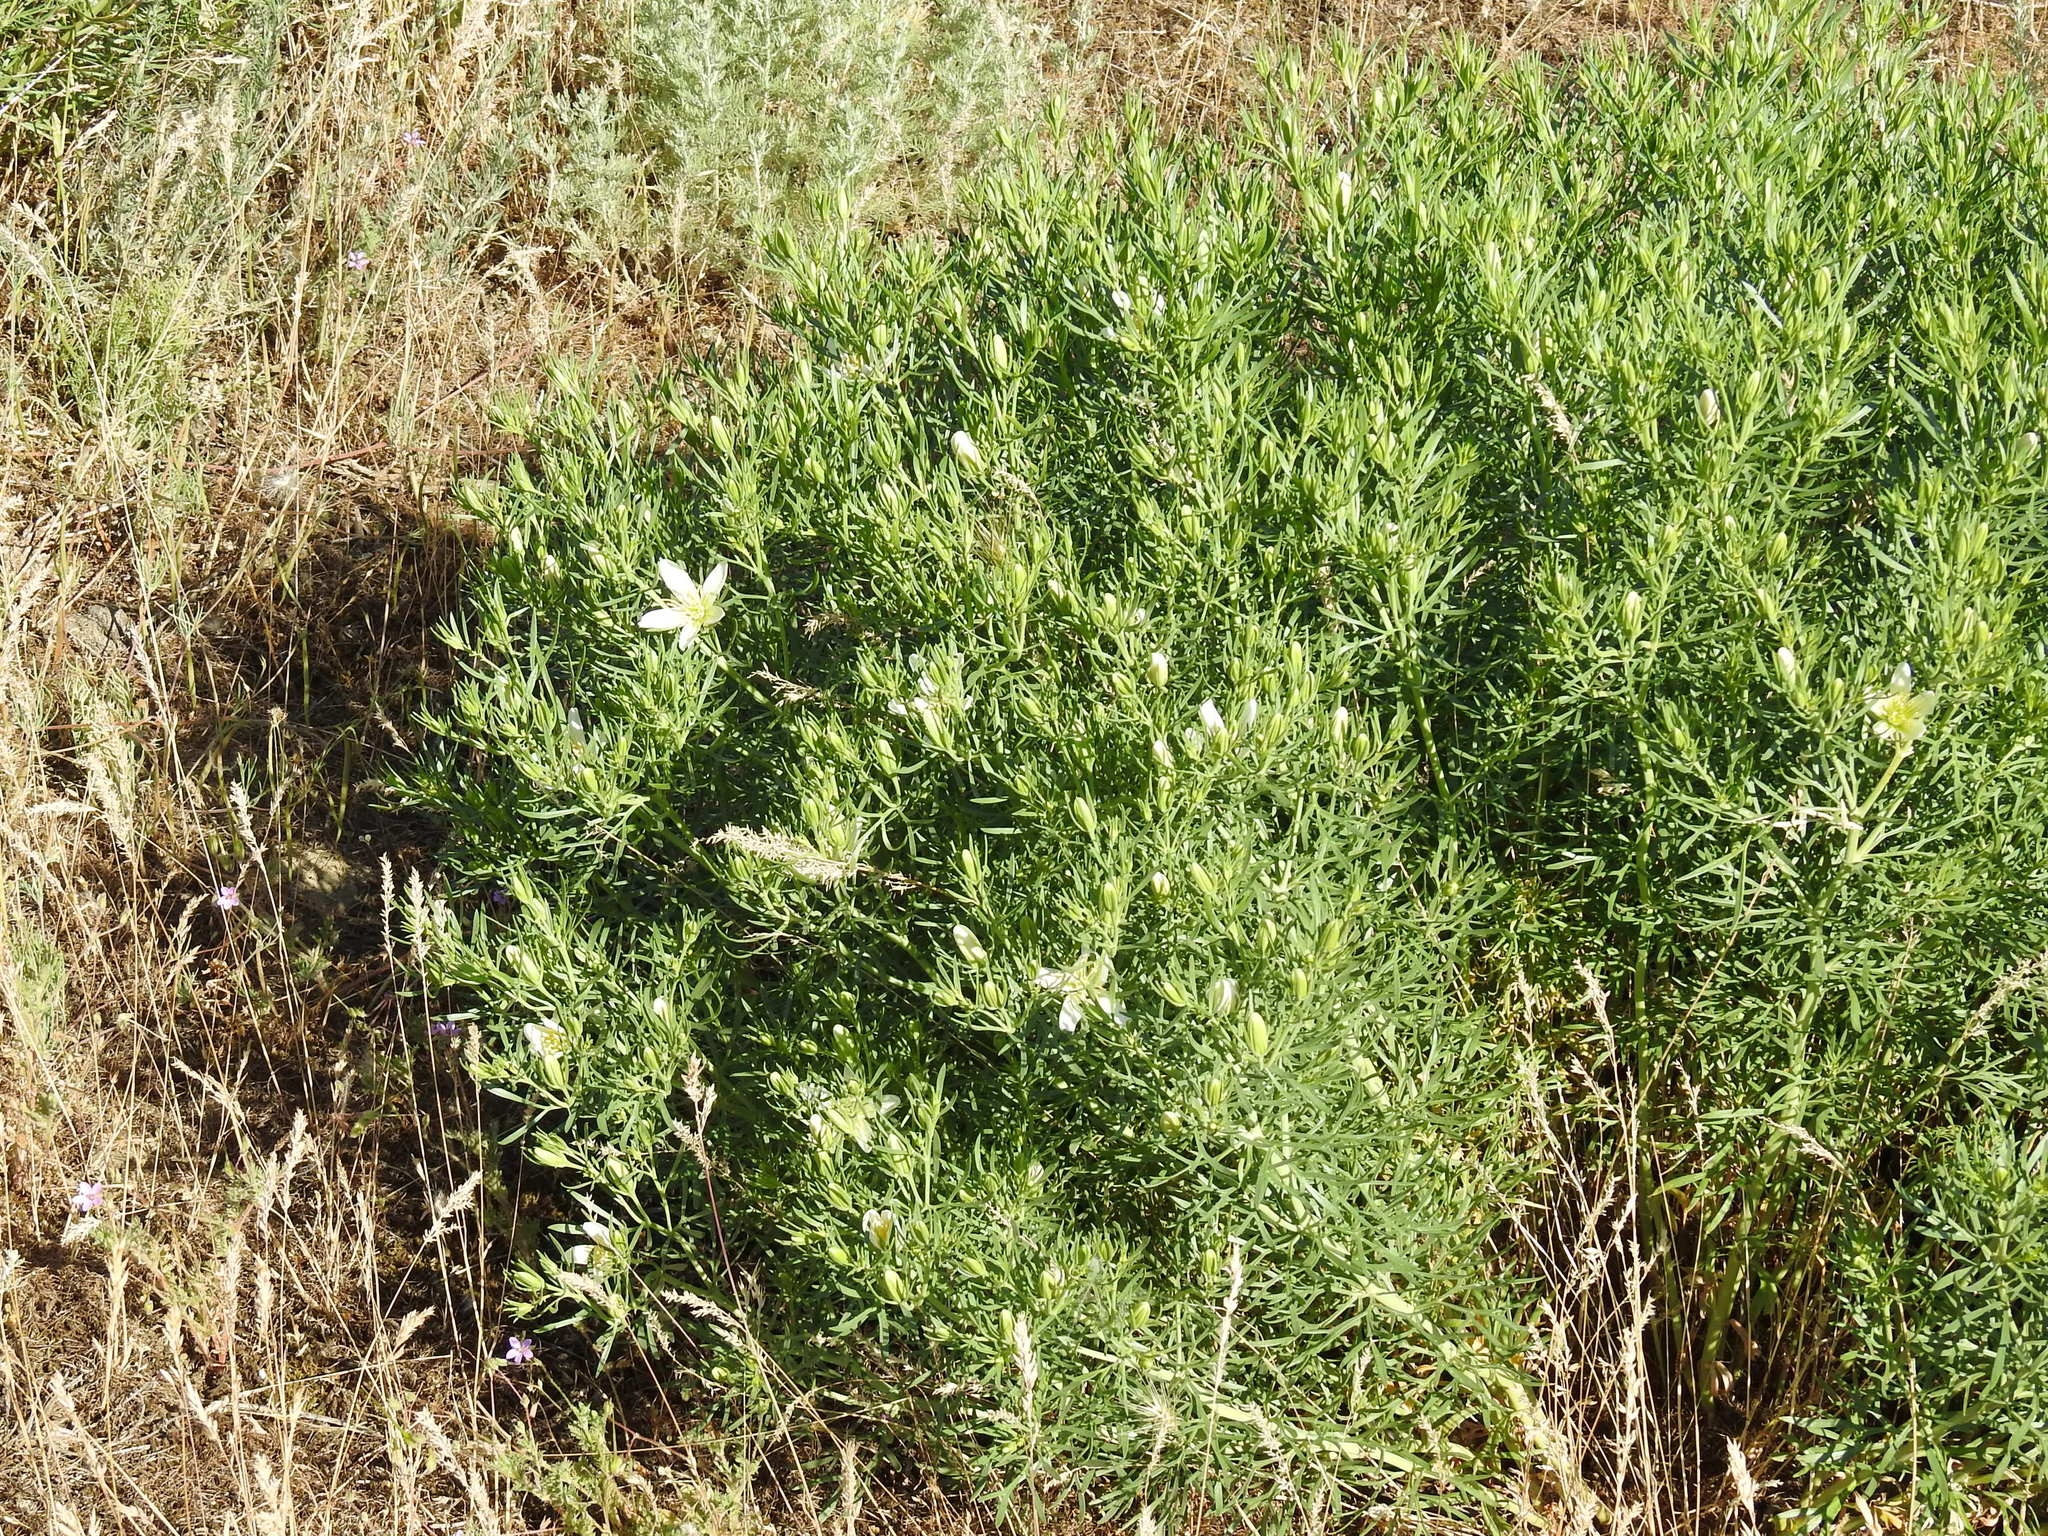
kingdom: Plantae
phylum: Tracheophyta
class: Magnoliopsida
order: Sapindales
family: Tetradiclidaceae
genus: Peganum
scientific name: Peganum harmala
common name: Harmal peganum
